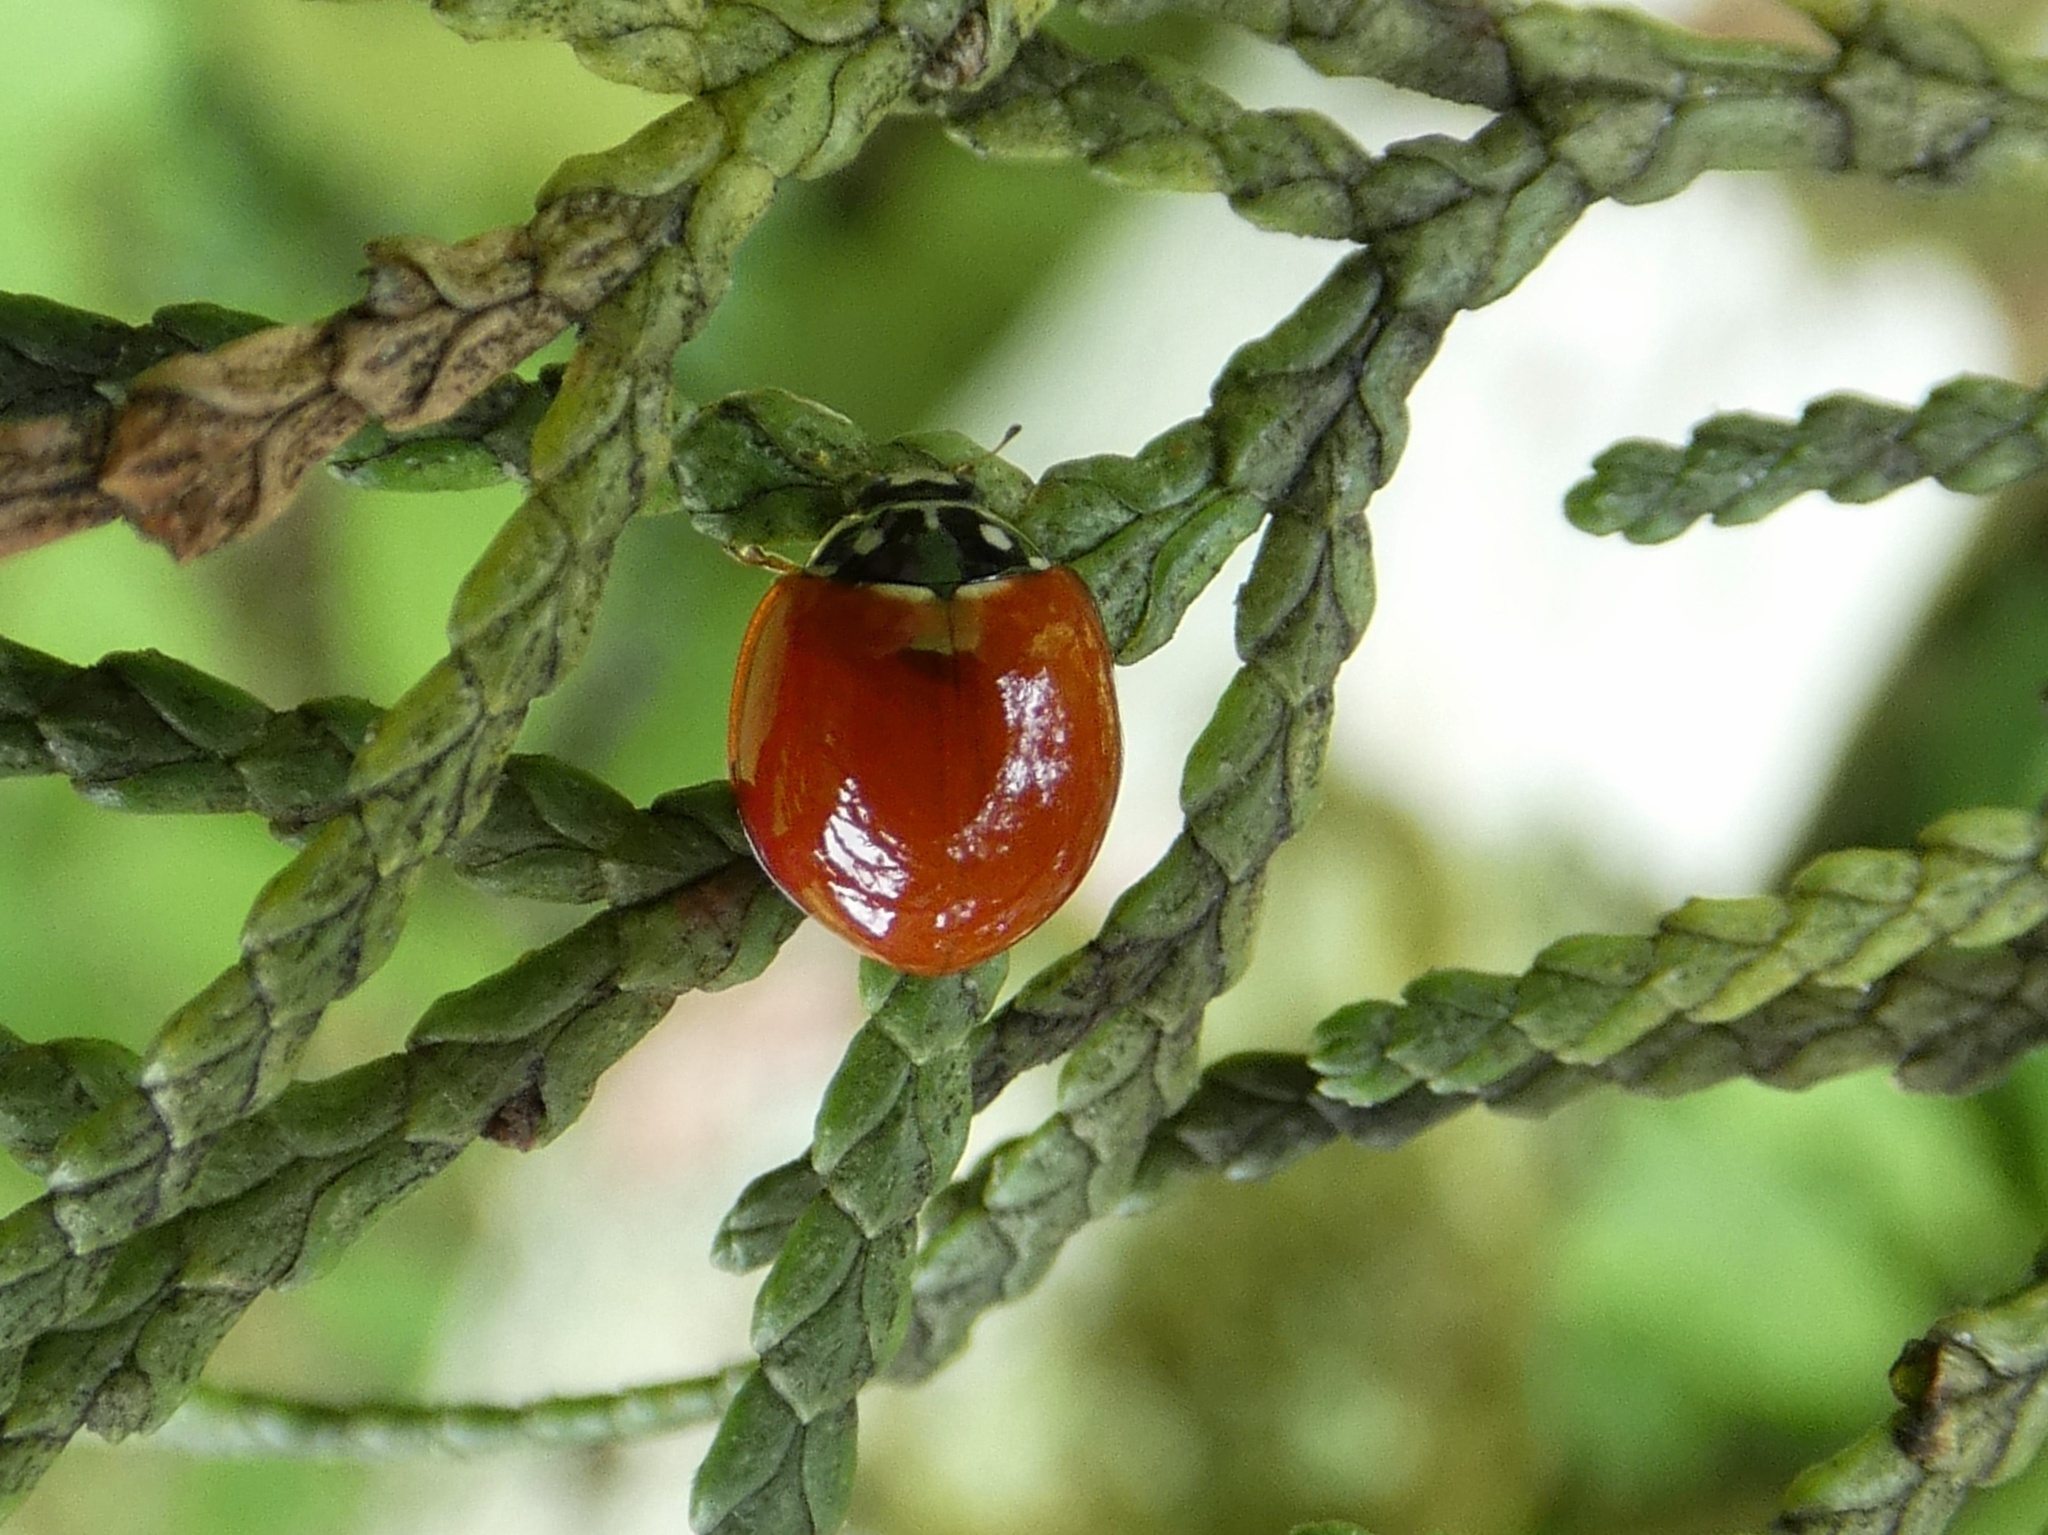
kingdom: Animalia
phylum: Arthropoda
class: Insecta
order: Coleoptera
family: Coccinellidae
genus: Cycloneda
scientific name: Cycloneda sanguinea
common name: Ladybird beetle
